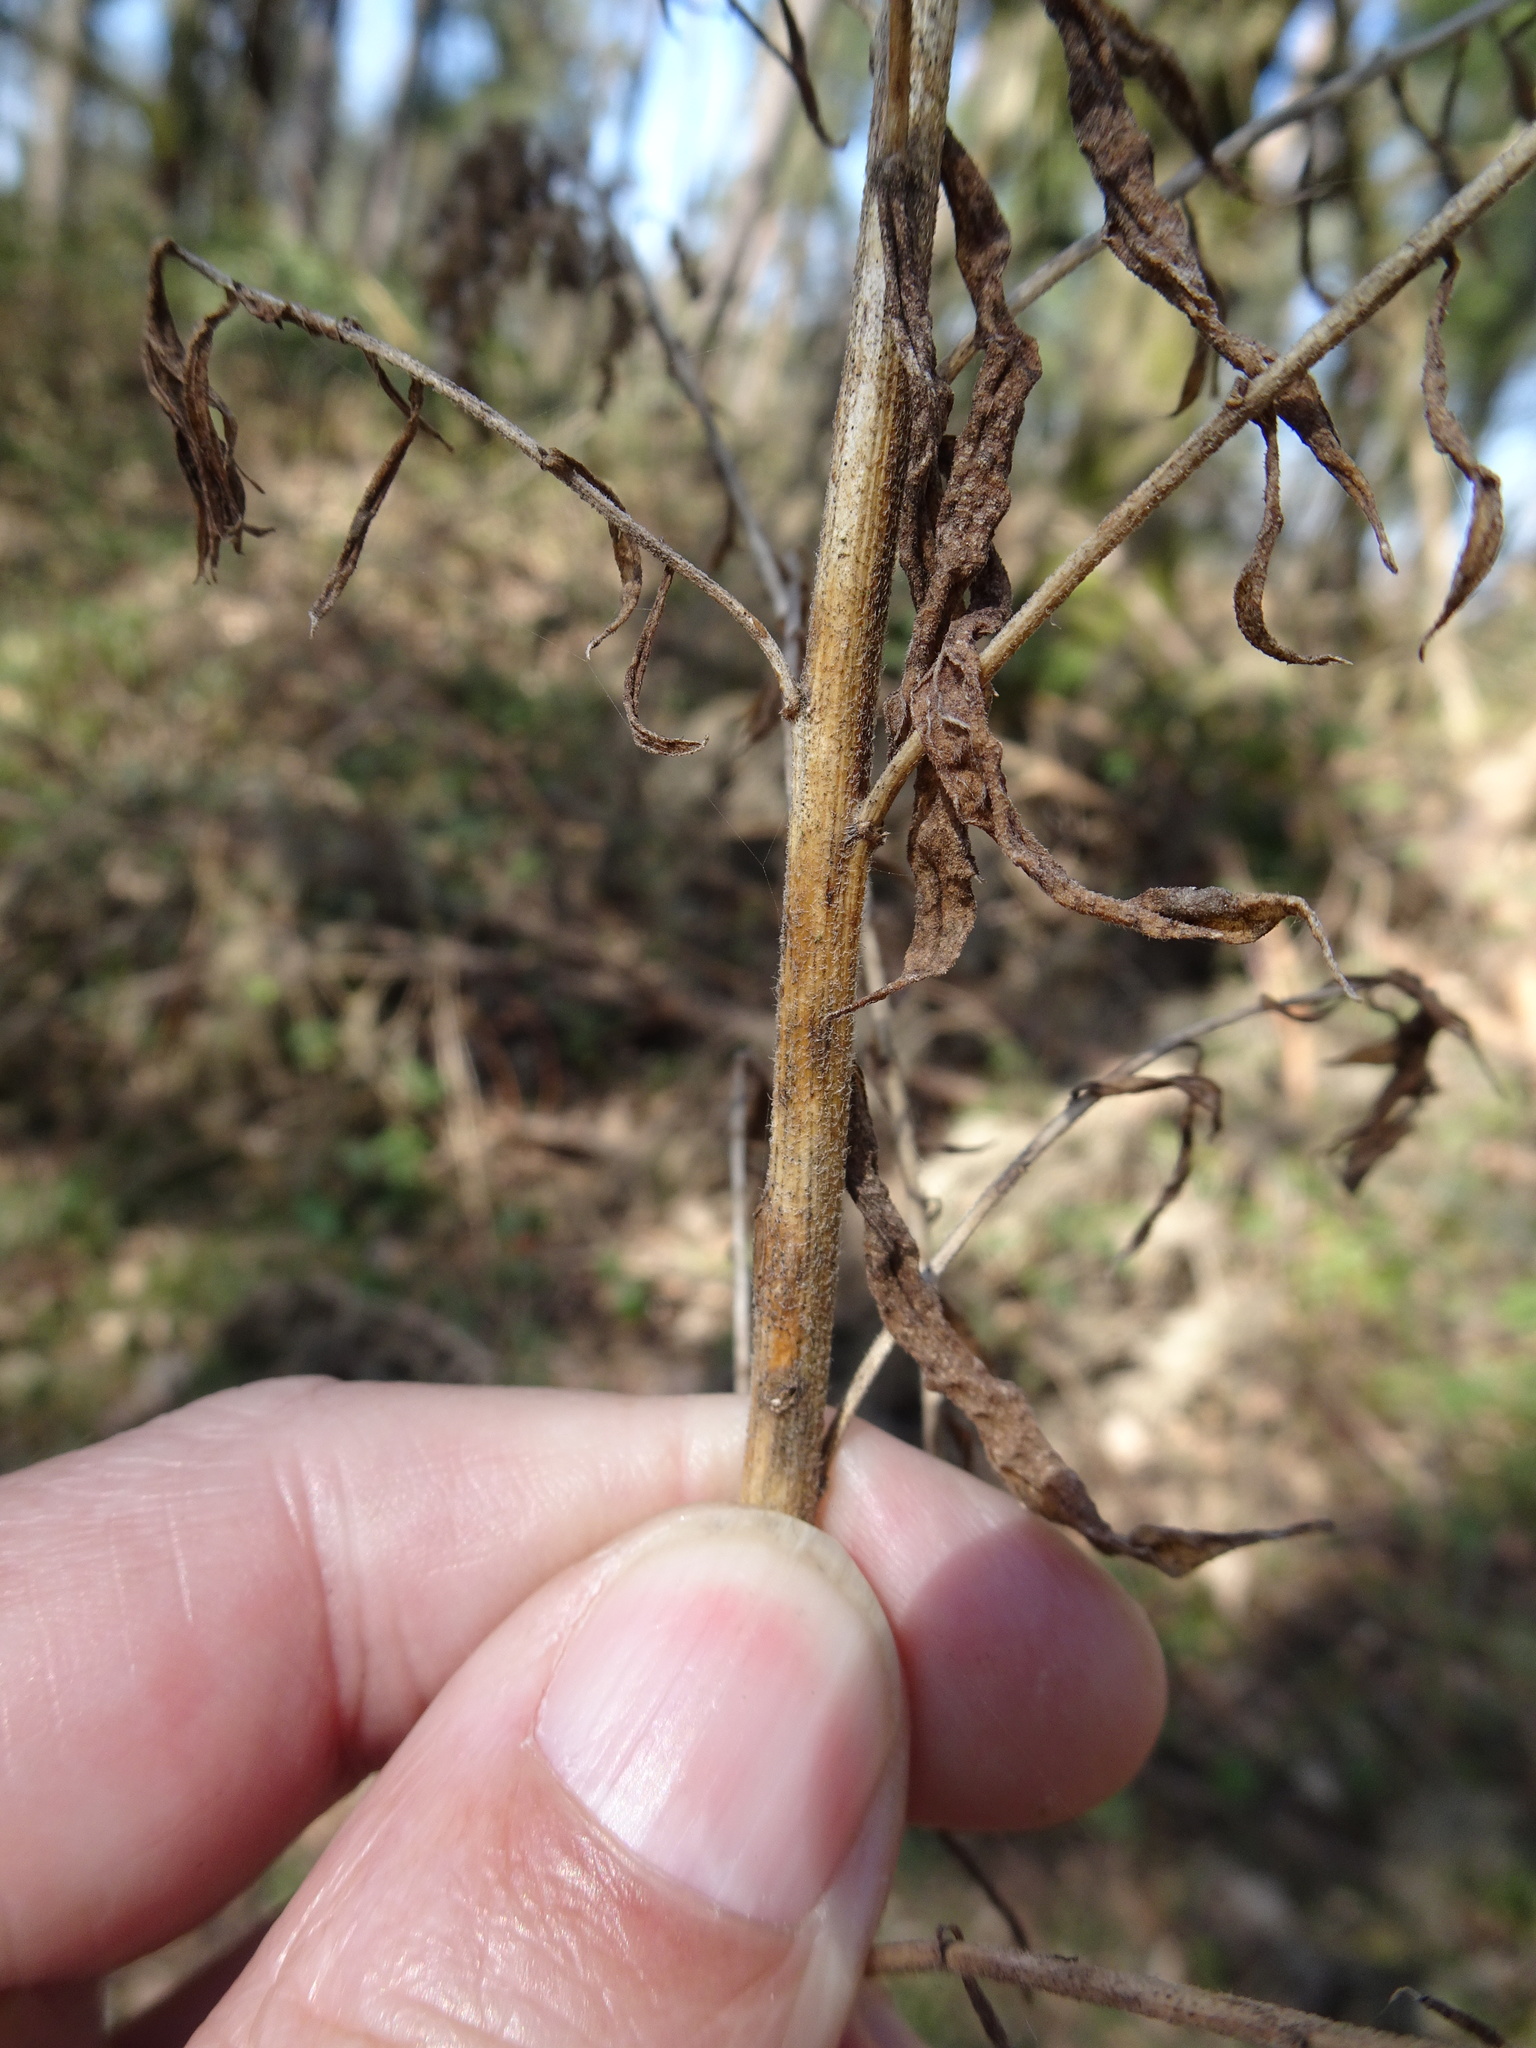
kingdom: Plantae
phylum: Tracheophyta
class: Magnoliopsida
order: Asterales
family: Asteraceae
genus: Solidago
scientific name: Solidago canadensis
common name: Canada goldenrod
